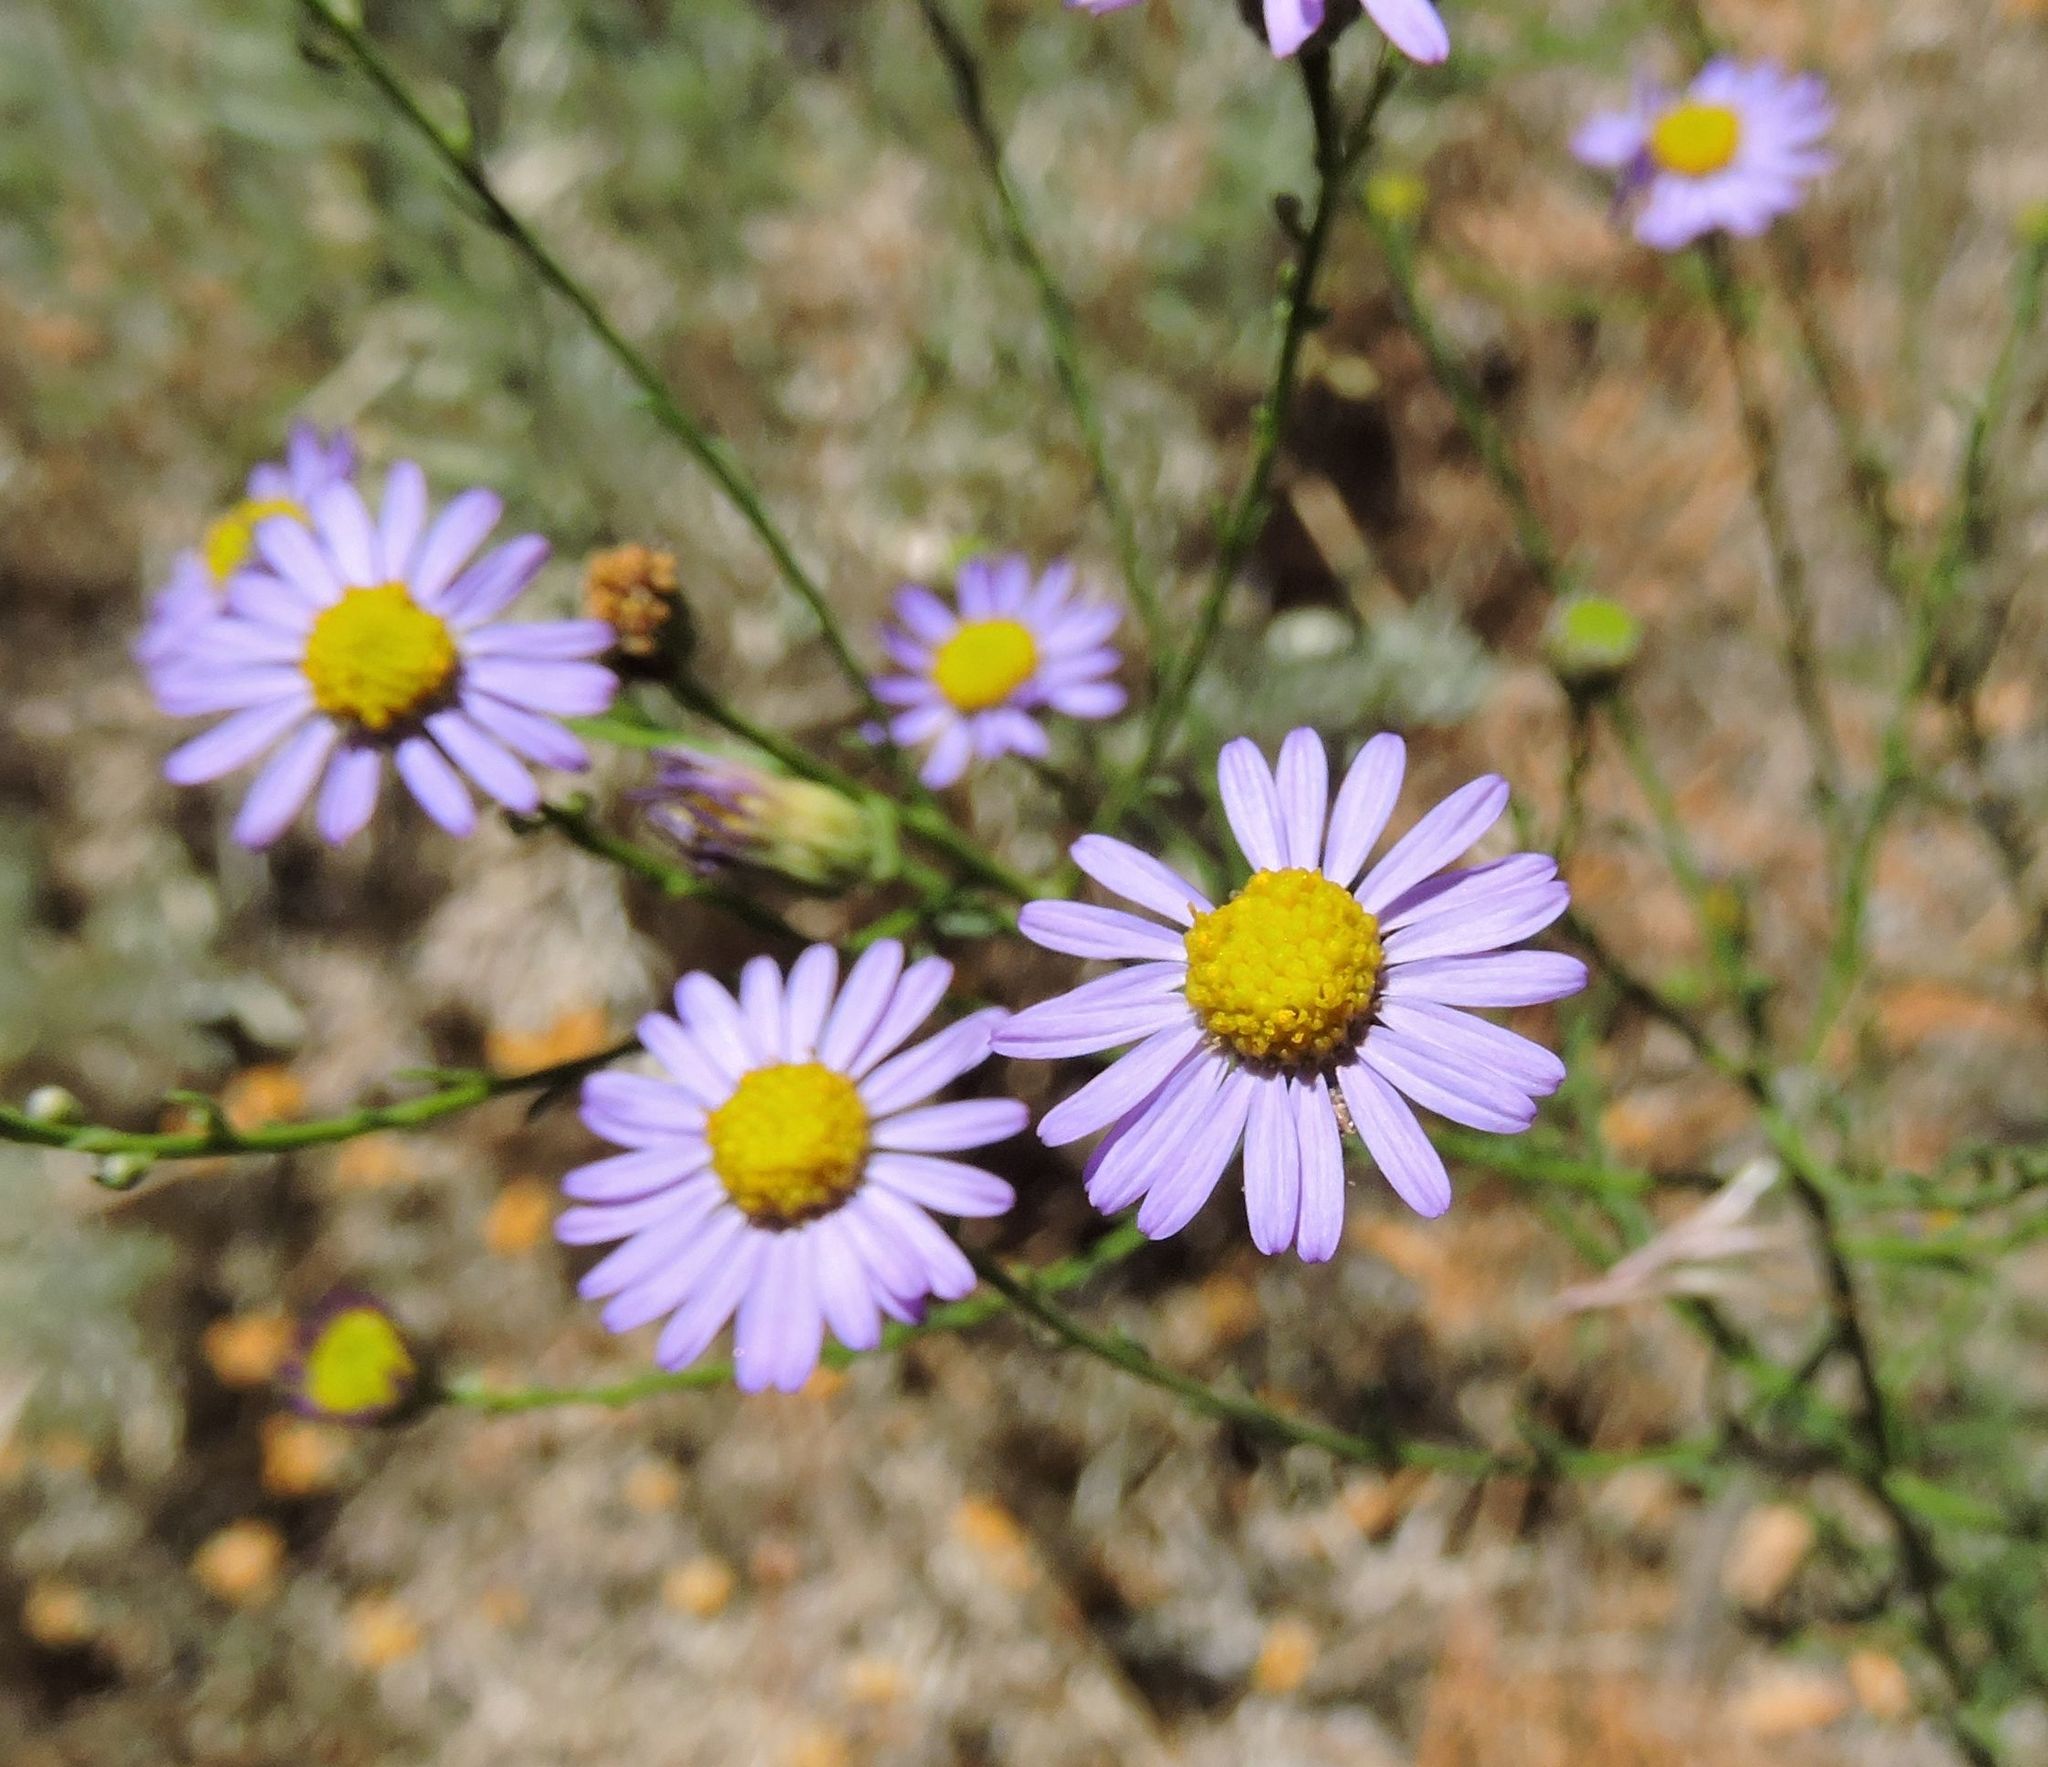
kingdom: Plantae
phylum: Tracheophyta
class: Magnoliopsida
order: Asterales
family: Asteraceae
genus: Erigeron
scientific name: Erigeron foliosus
